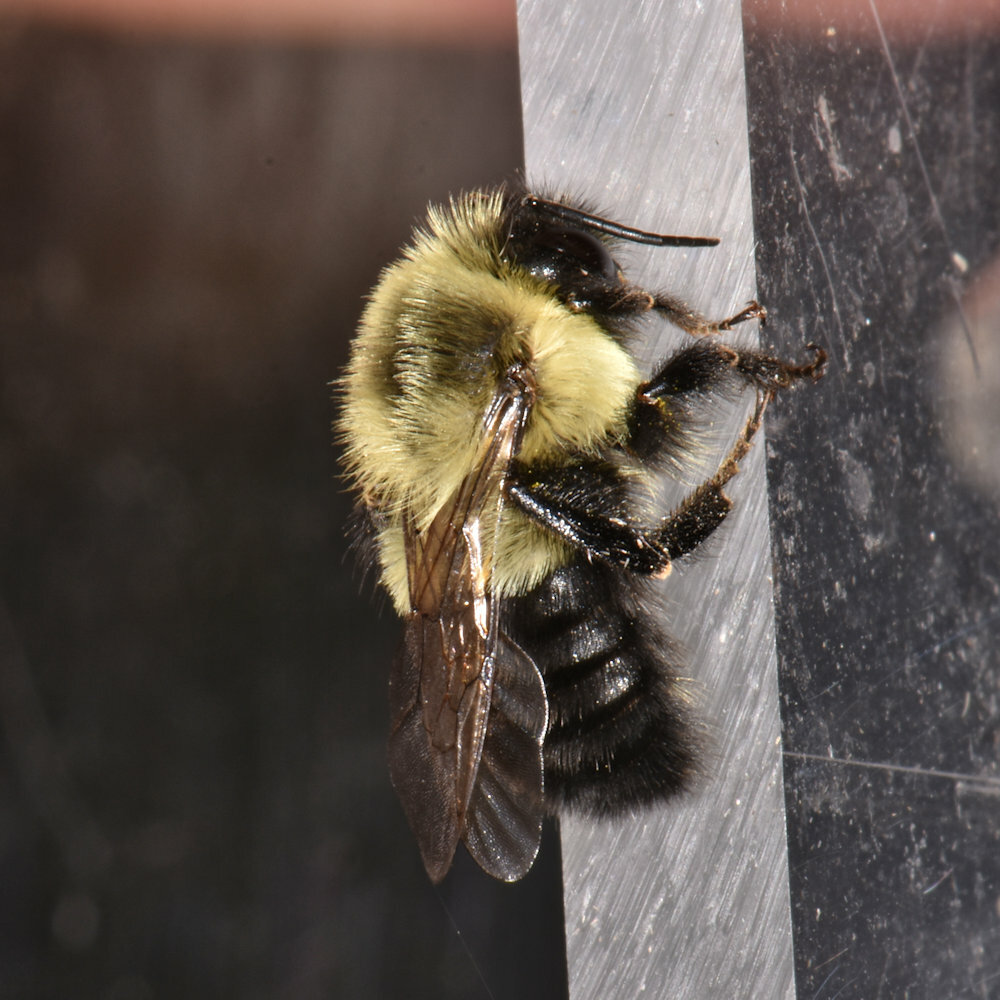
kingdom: Animalia
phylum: Arthropoda
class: Insecta
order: Hymenoptera
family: Apidae
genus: Bombus
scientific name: Bombus impatiens
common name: Common eastern bumble bee
